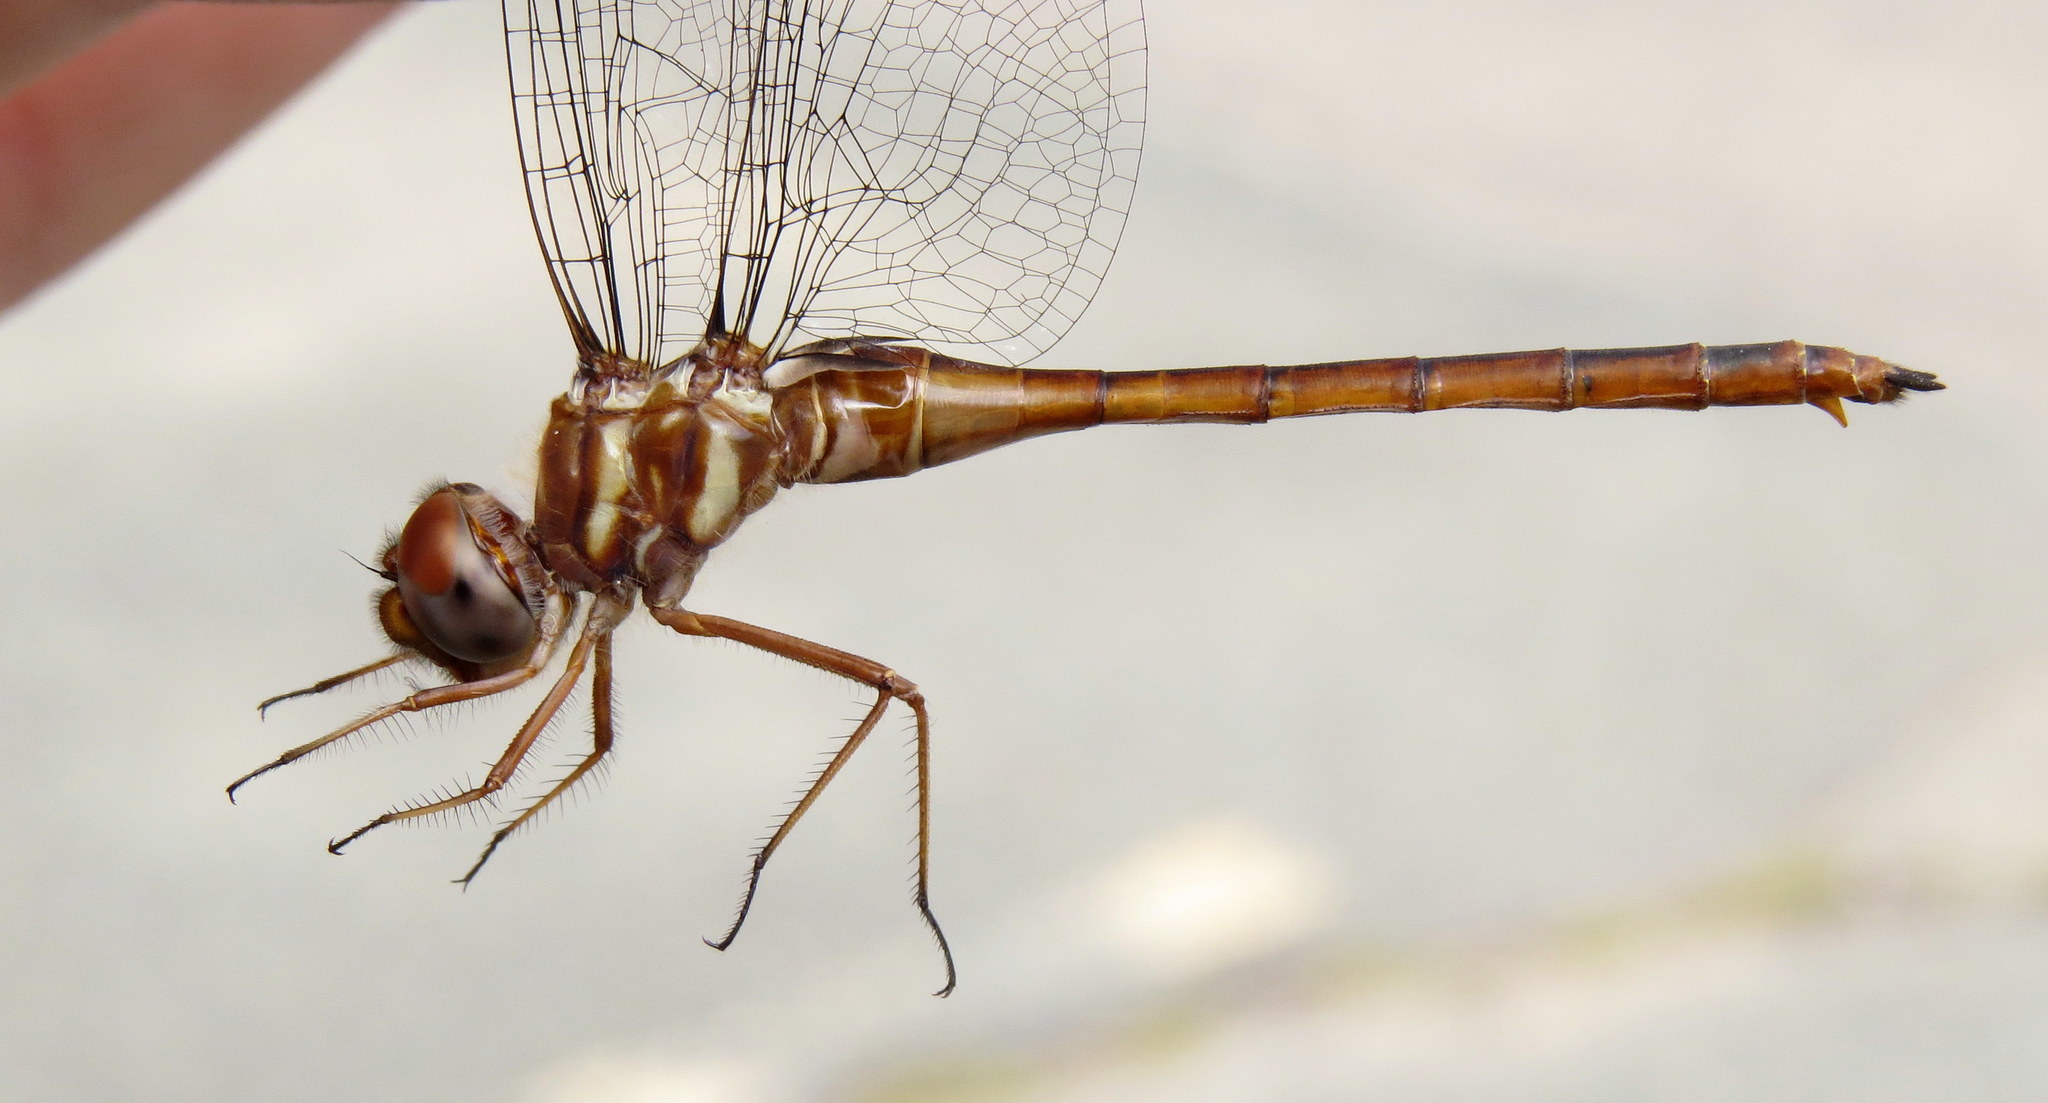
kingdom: Animalia
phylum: Arthropoda
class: Insecta
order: Odonata
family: Corduliidae
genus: Somatochlora
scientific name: Somatochlora georgiana
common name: Coppery emerald
